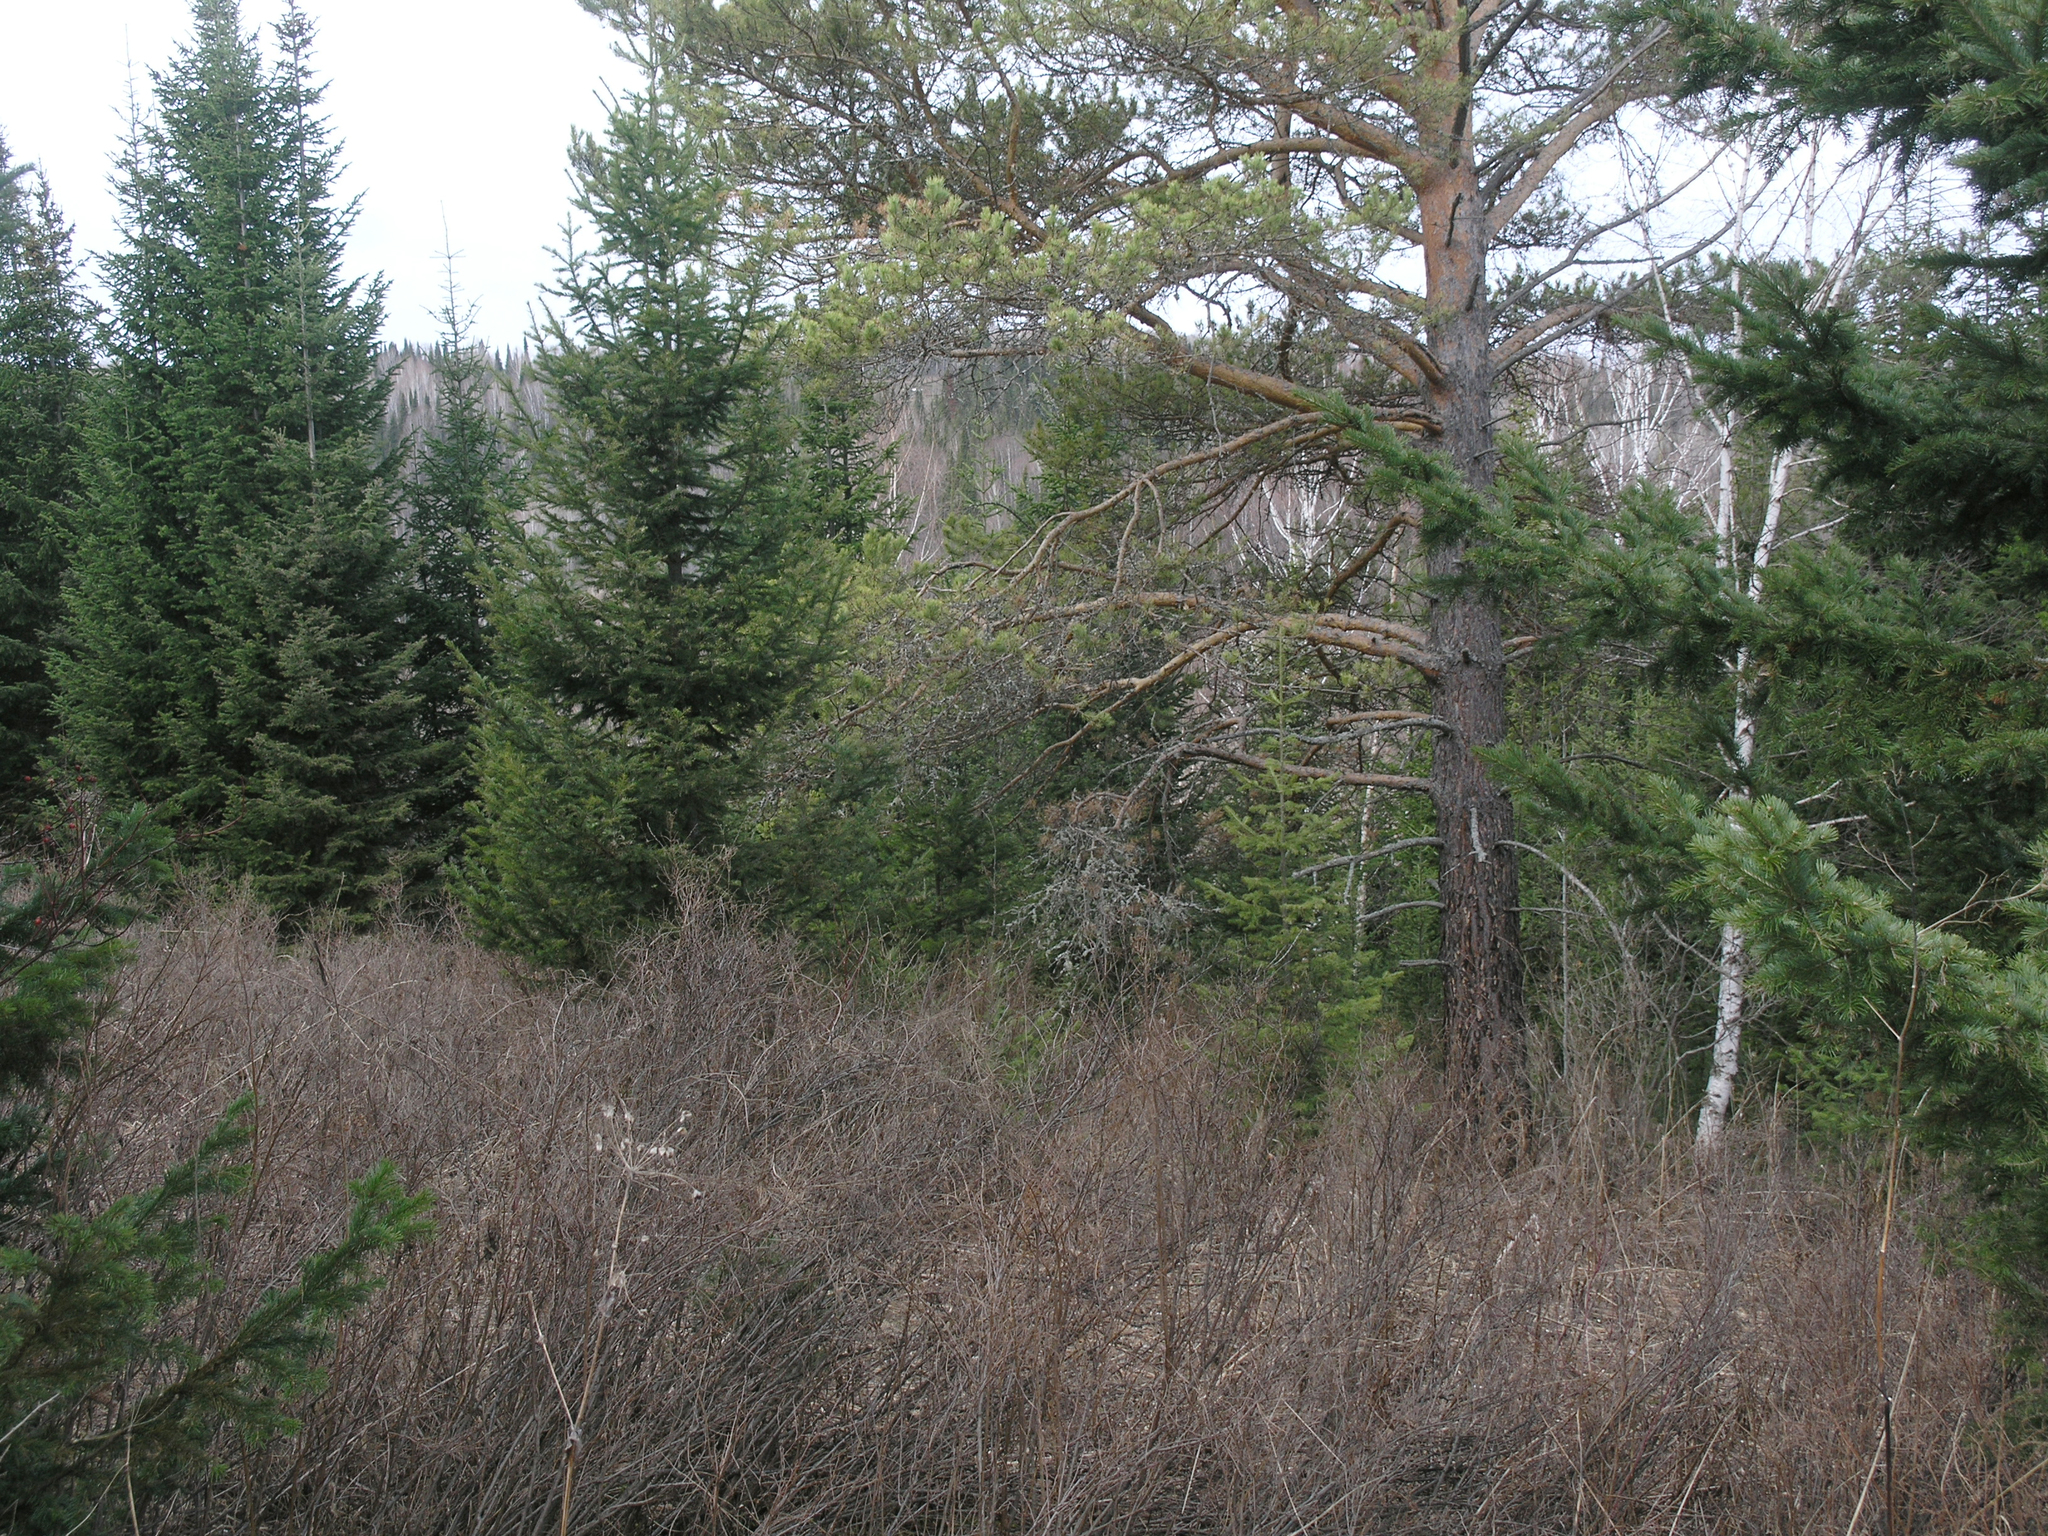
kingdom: Plantae
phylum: Tracheophyta
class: Pinopsida
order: Pinales
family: Pinaceae
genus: Abies
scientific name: Abies sibirica
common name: Siberian fir
